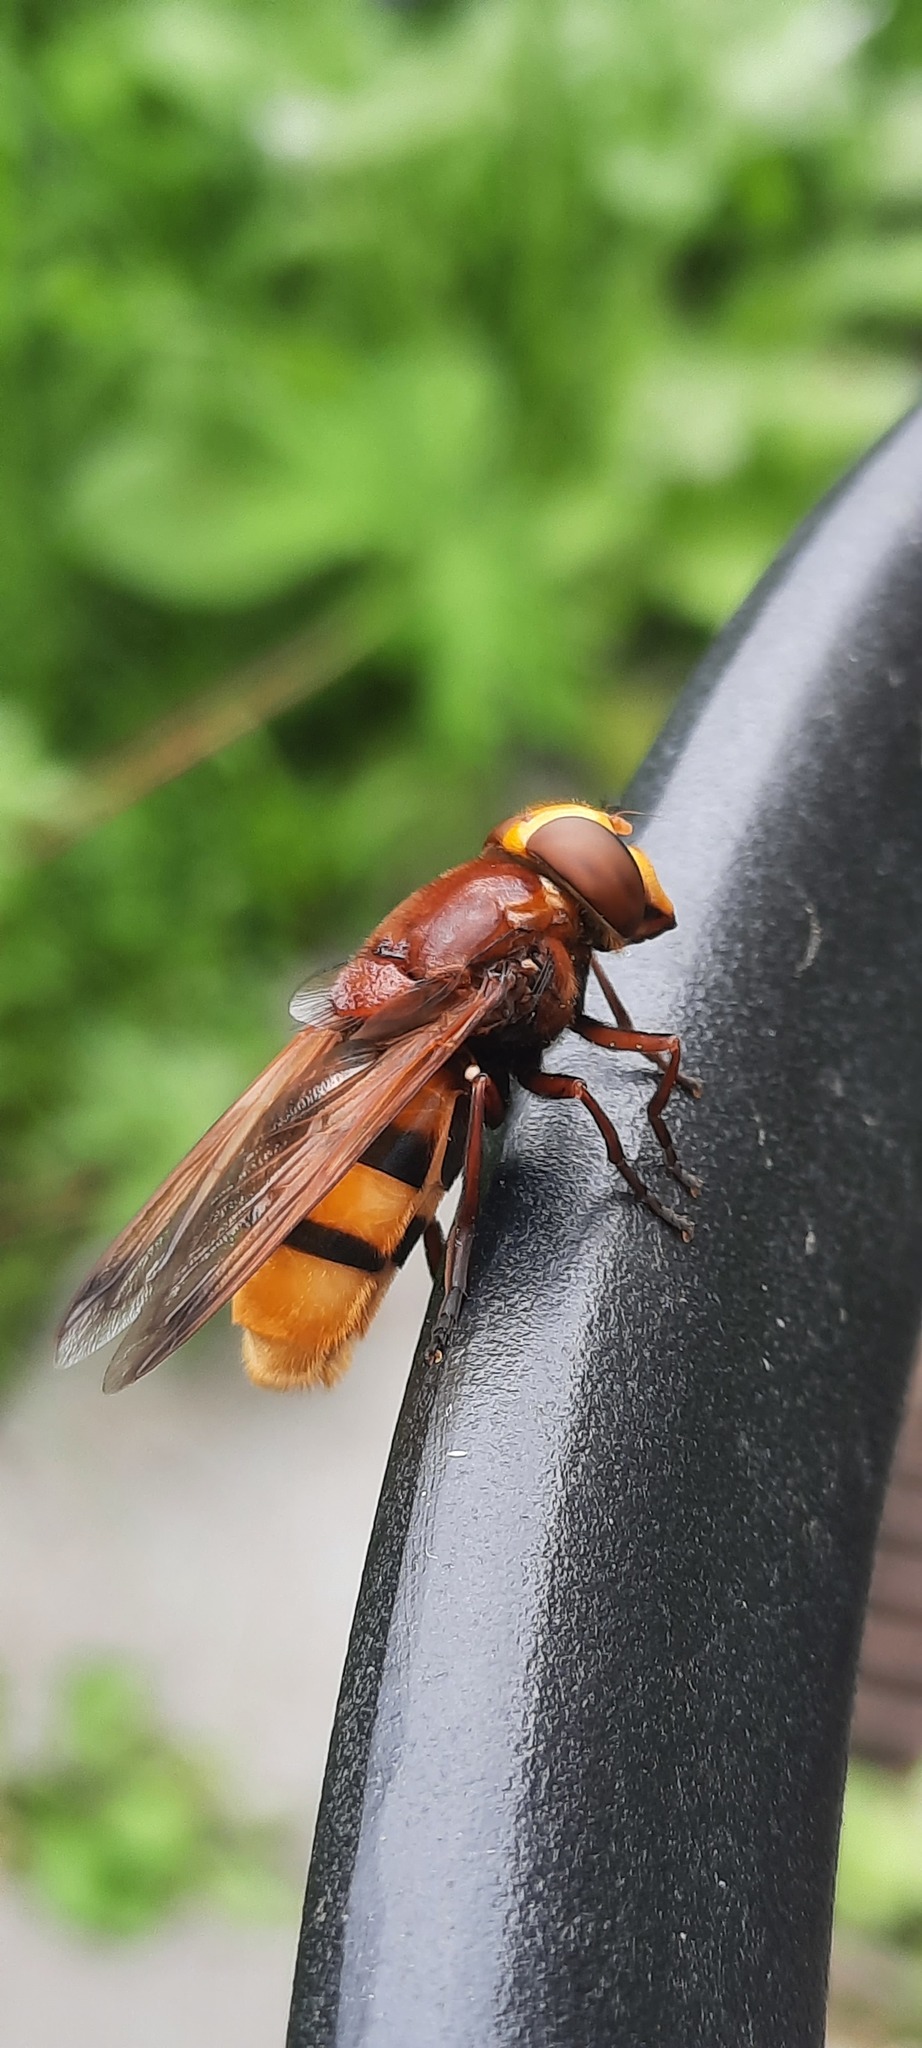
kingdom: Animalia
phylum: Arthropoda
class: Insecta
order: Diptera
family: Syrphidae
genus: Volucella
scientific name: Volucella zonaria
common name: Hornet hoverfly
